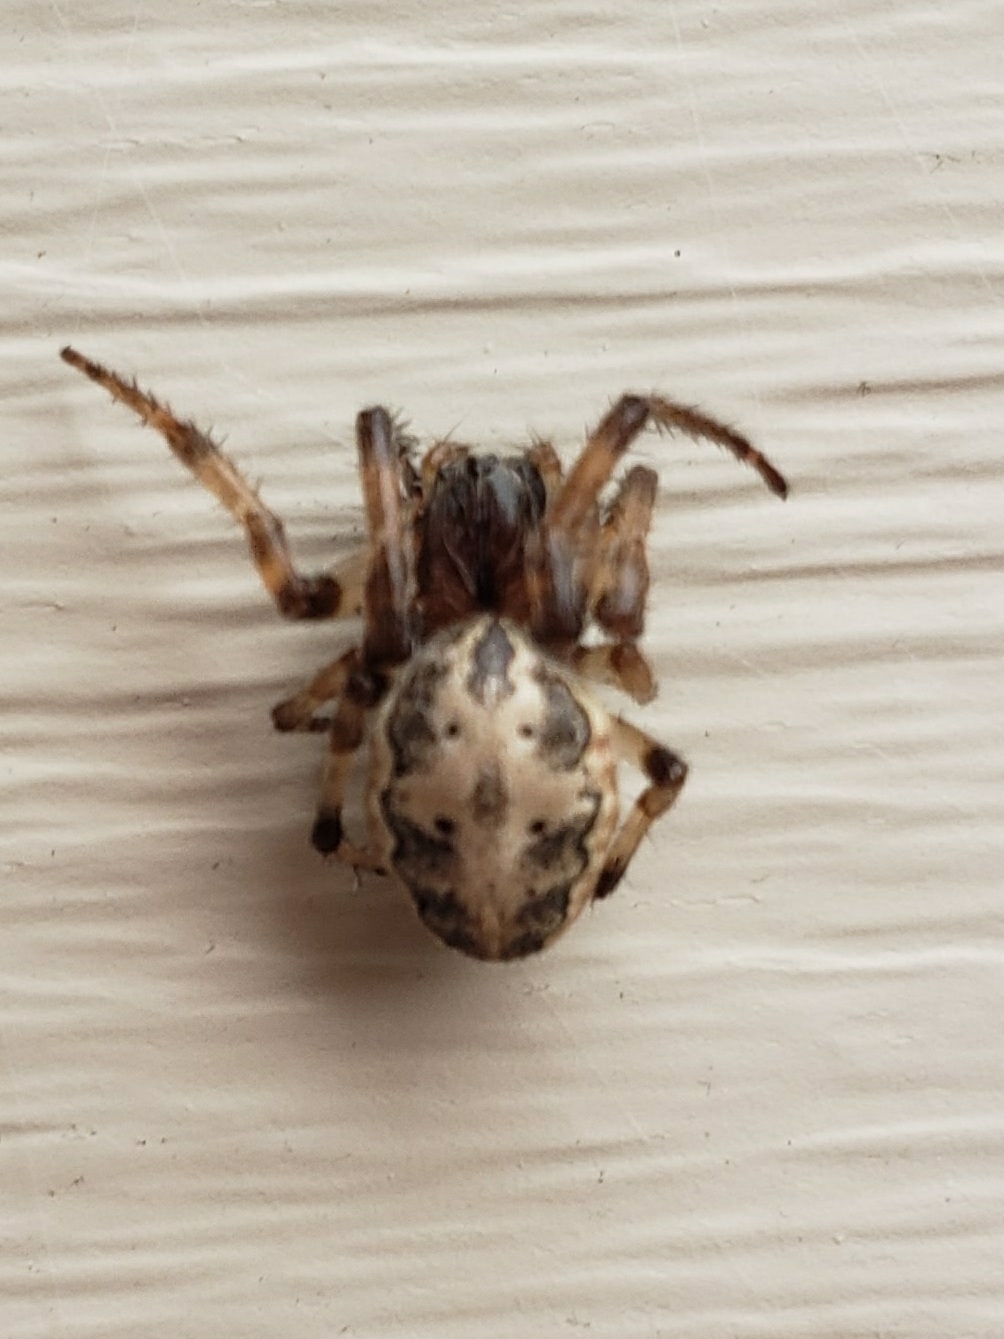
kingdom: Animalia
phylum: Arthropoda
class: Arachnida
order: Araneae
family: Araneidae
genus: Larinioides
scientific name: Larinioides cornutus
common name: Furrow orbweaver
